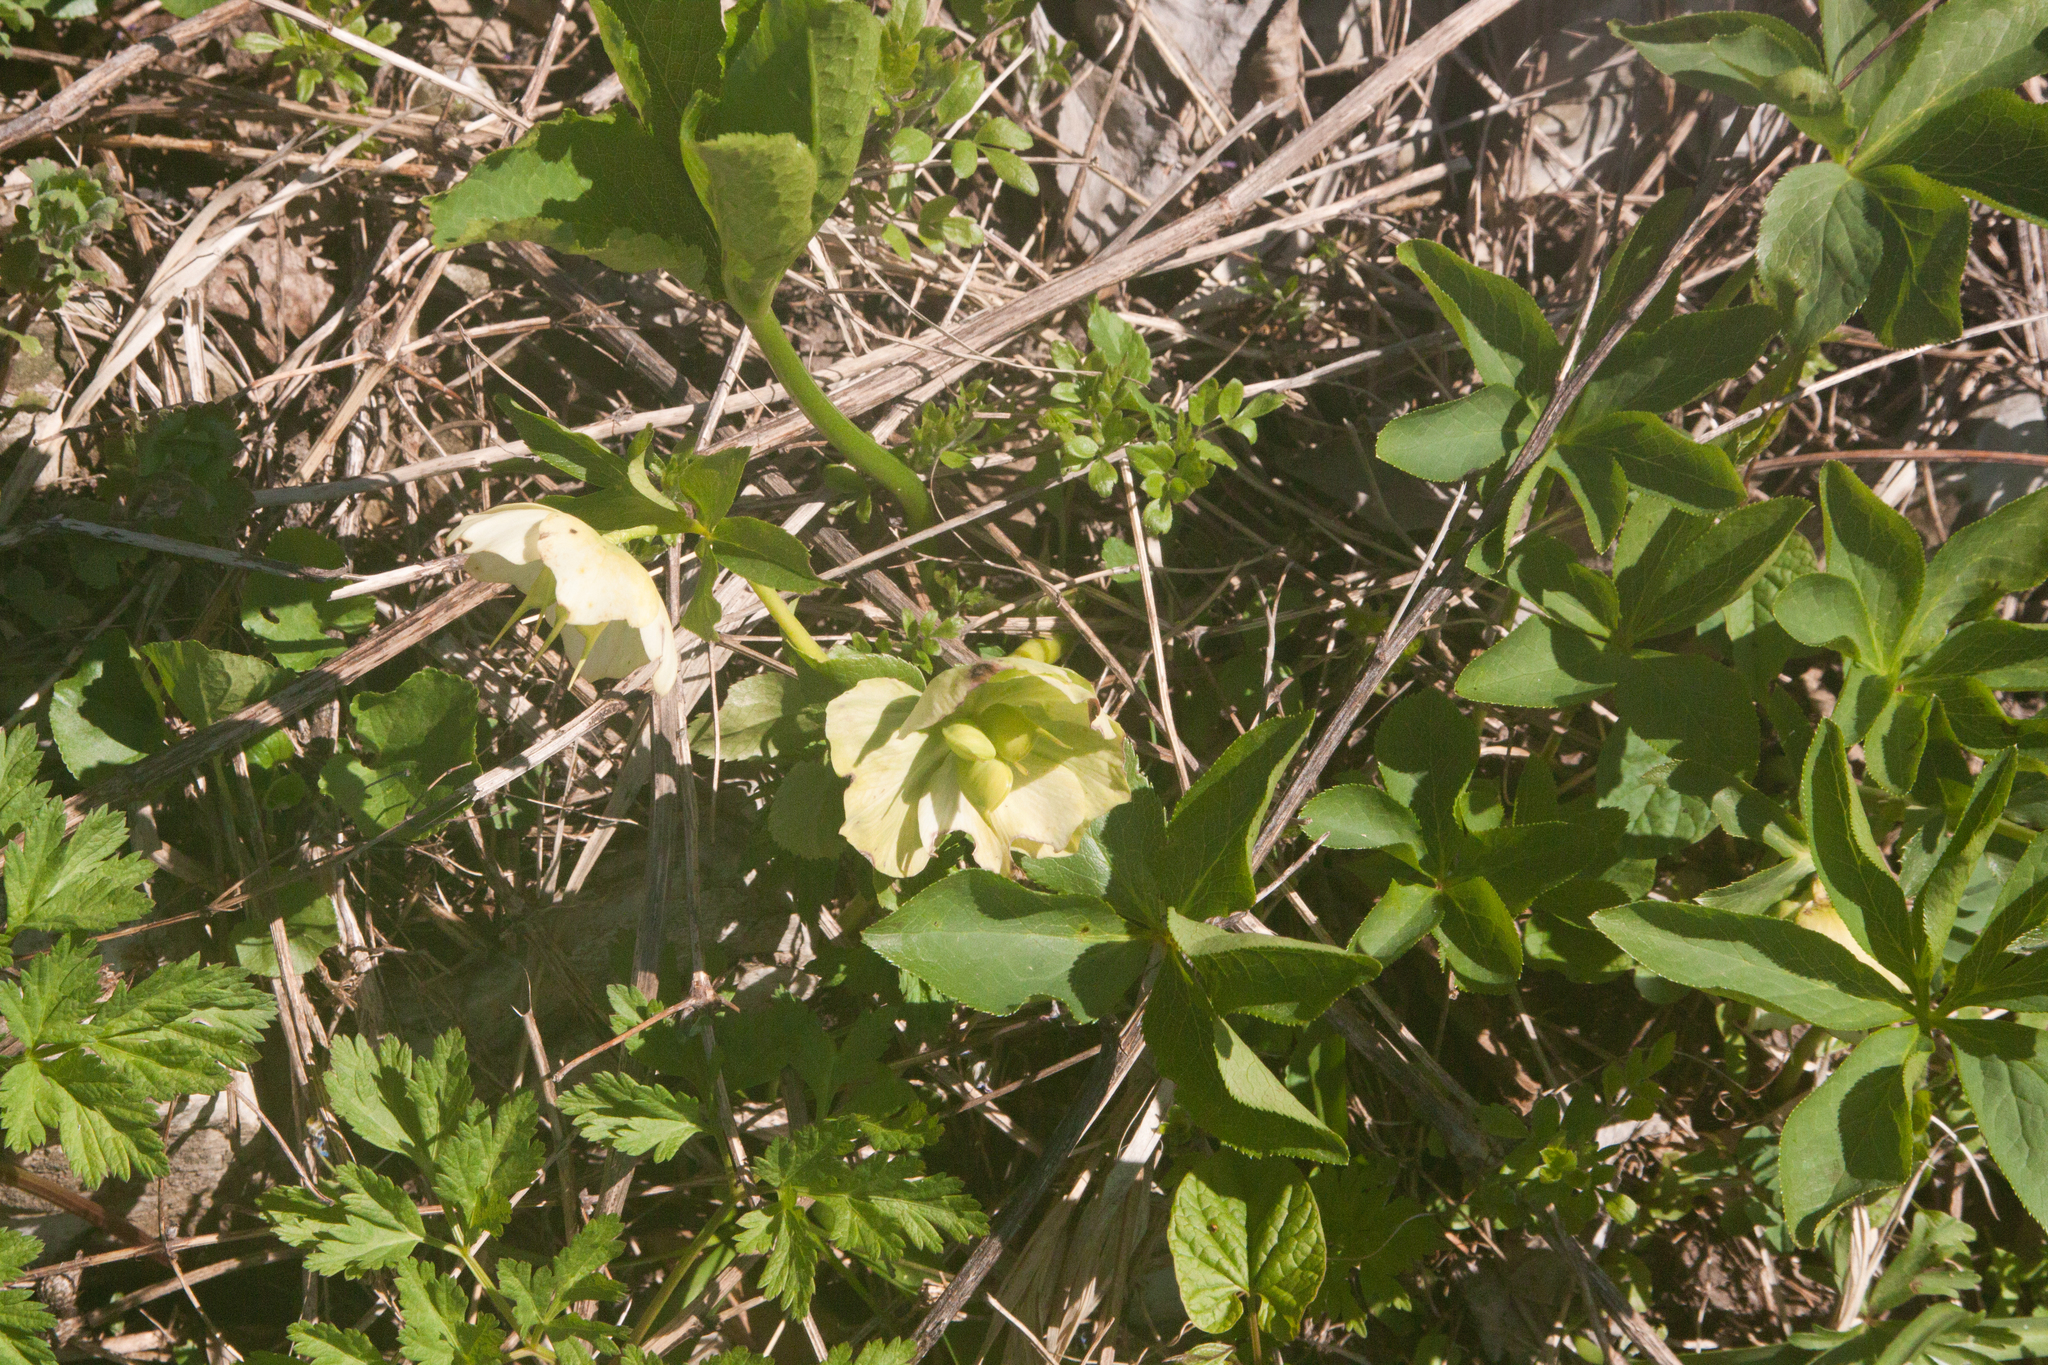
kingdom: Plantae
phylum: Tracheophyta
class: Magnoliopsida
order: Ranunculales
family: Ranunculaceae
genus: Helleborus
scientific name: Helleborus orientalis
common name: Lenten-rose
